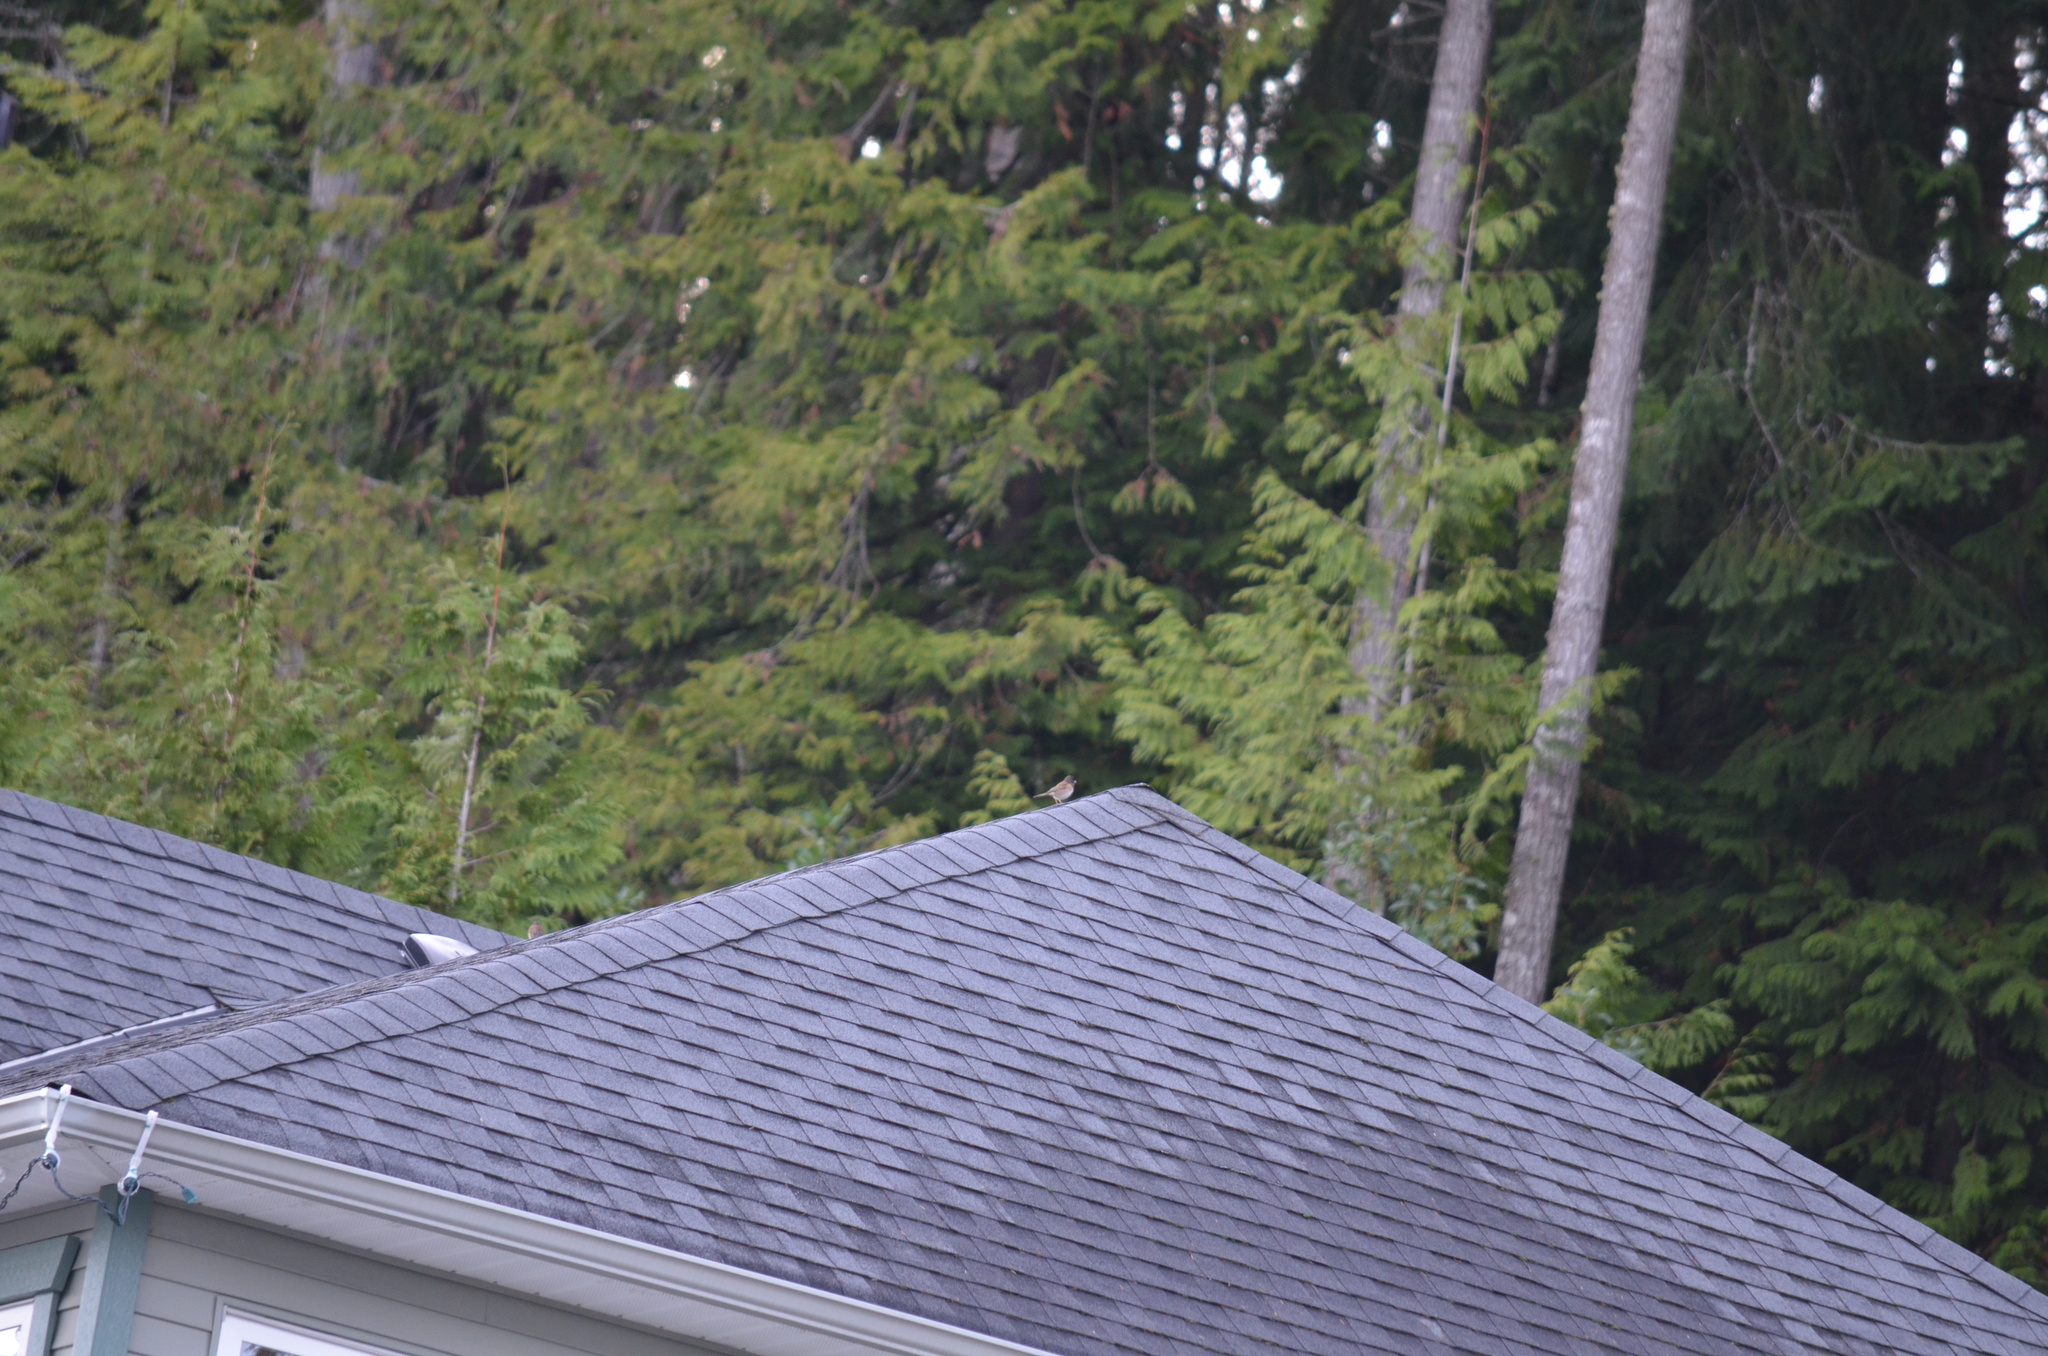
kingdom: Animalia
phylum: Chordata
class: Aves
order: Passeriformes
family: Passerellidae
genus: Junco
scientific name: Junco hyemalis
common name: Dark-eyed junco
